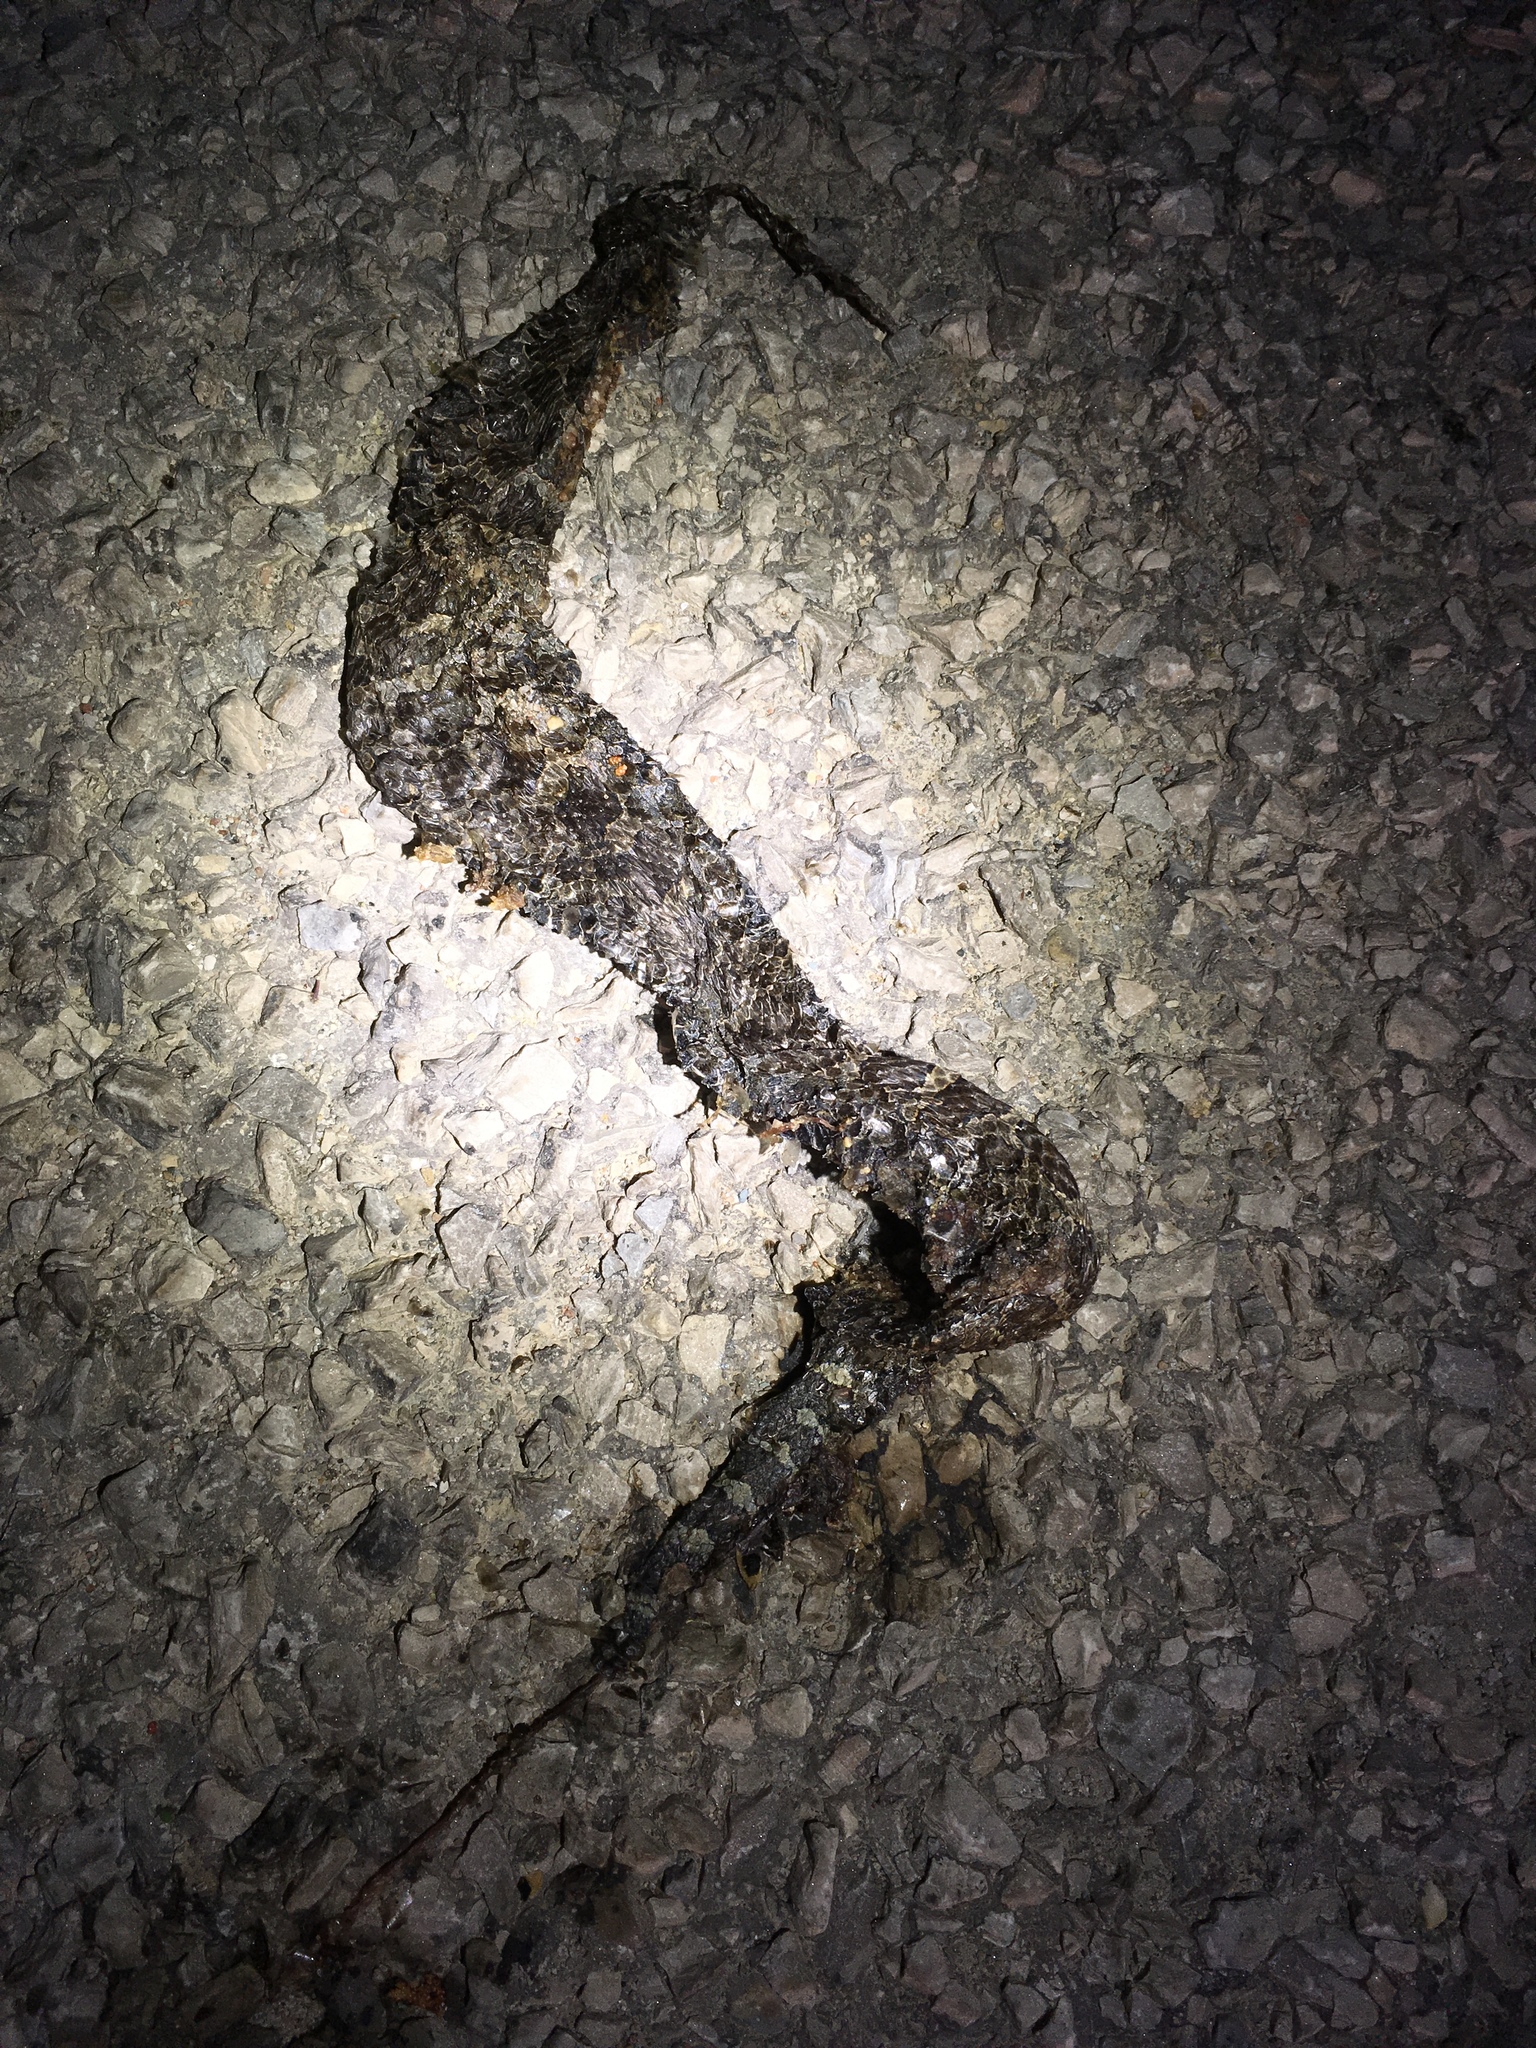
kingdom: Animalia
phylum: Chordata
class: Squamata
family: Viperidae
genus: Sistrurus
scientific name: Sistrurus catenatus
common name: Massasauga
